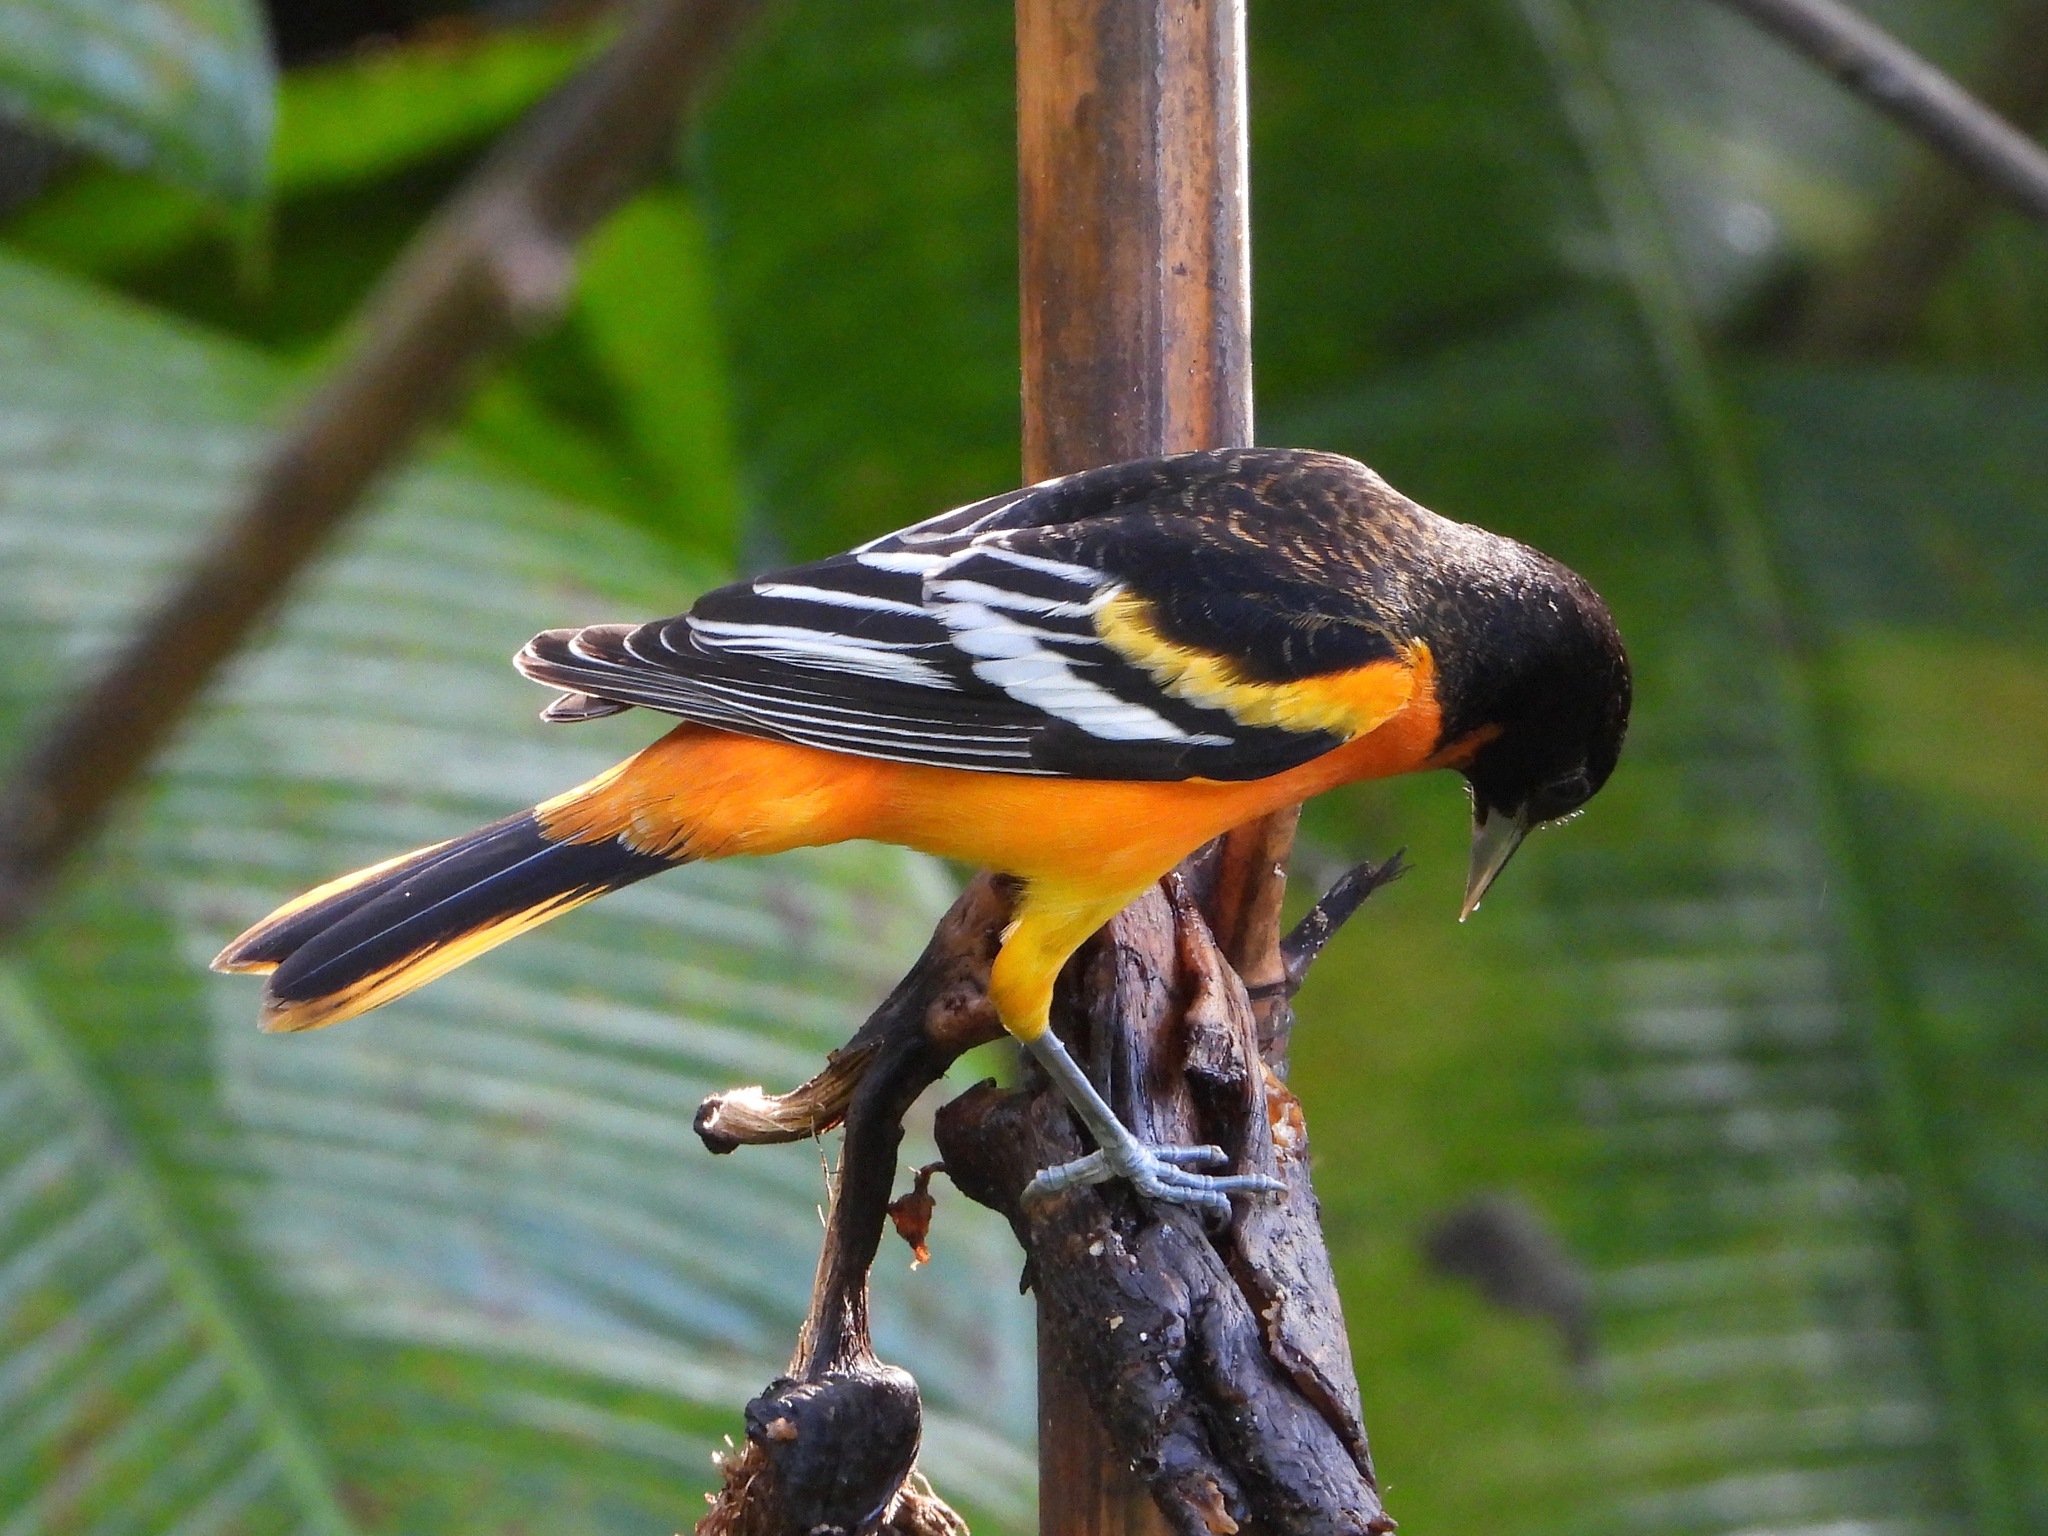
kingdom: Animalia
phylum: Chordata
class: Aves
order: Passeriformes
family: Icteridae
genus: Icterus
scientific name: Icterus galbula
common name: Baltimore oriole
